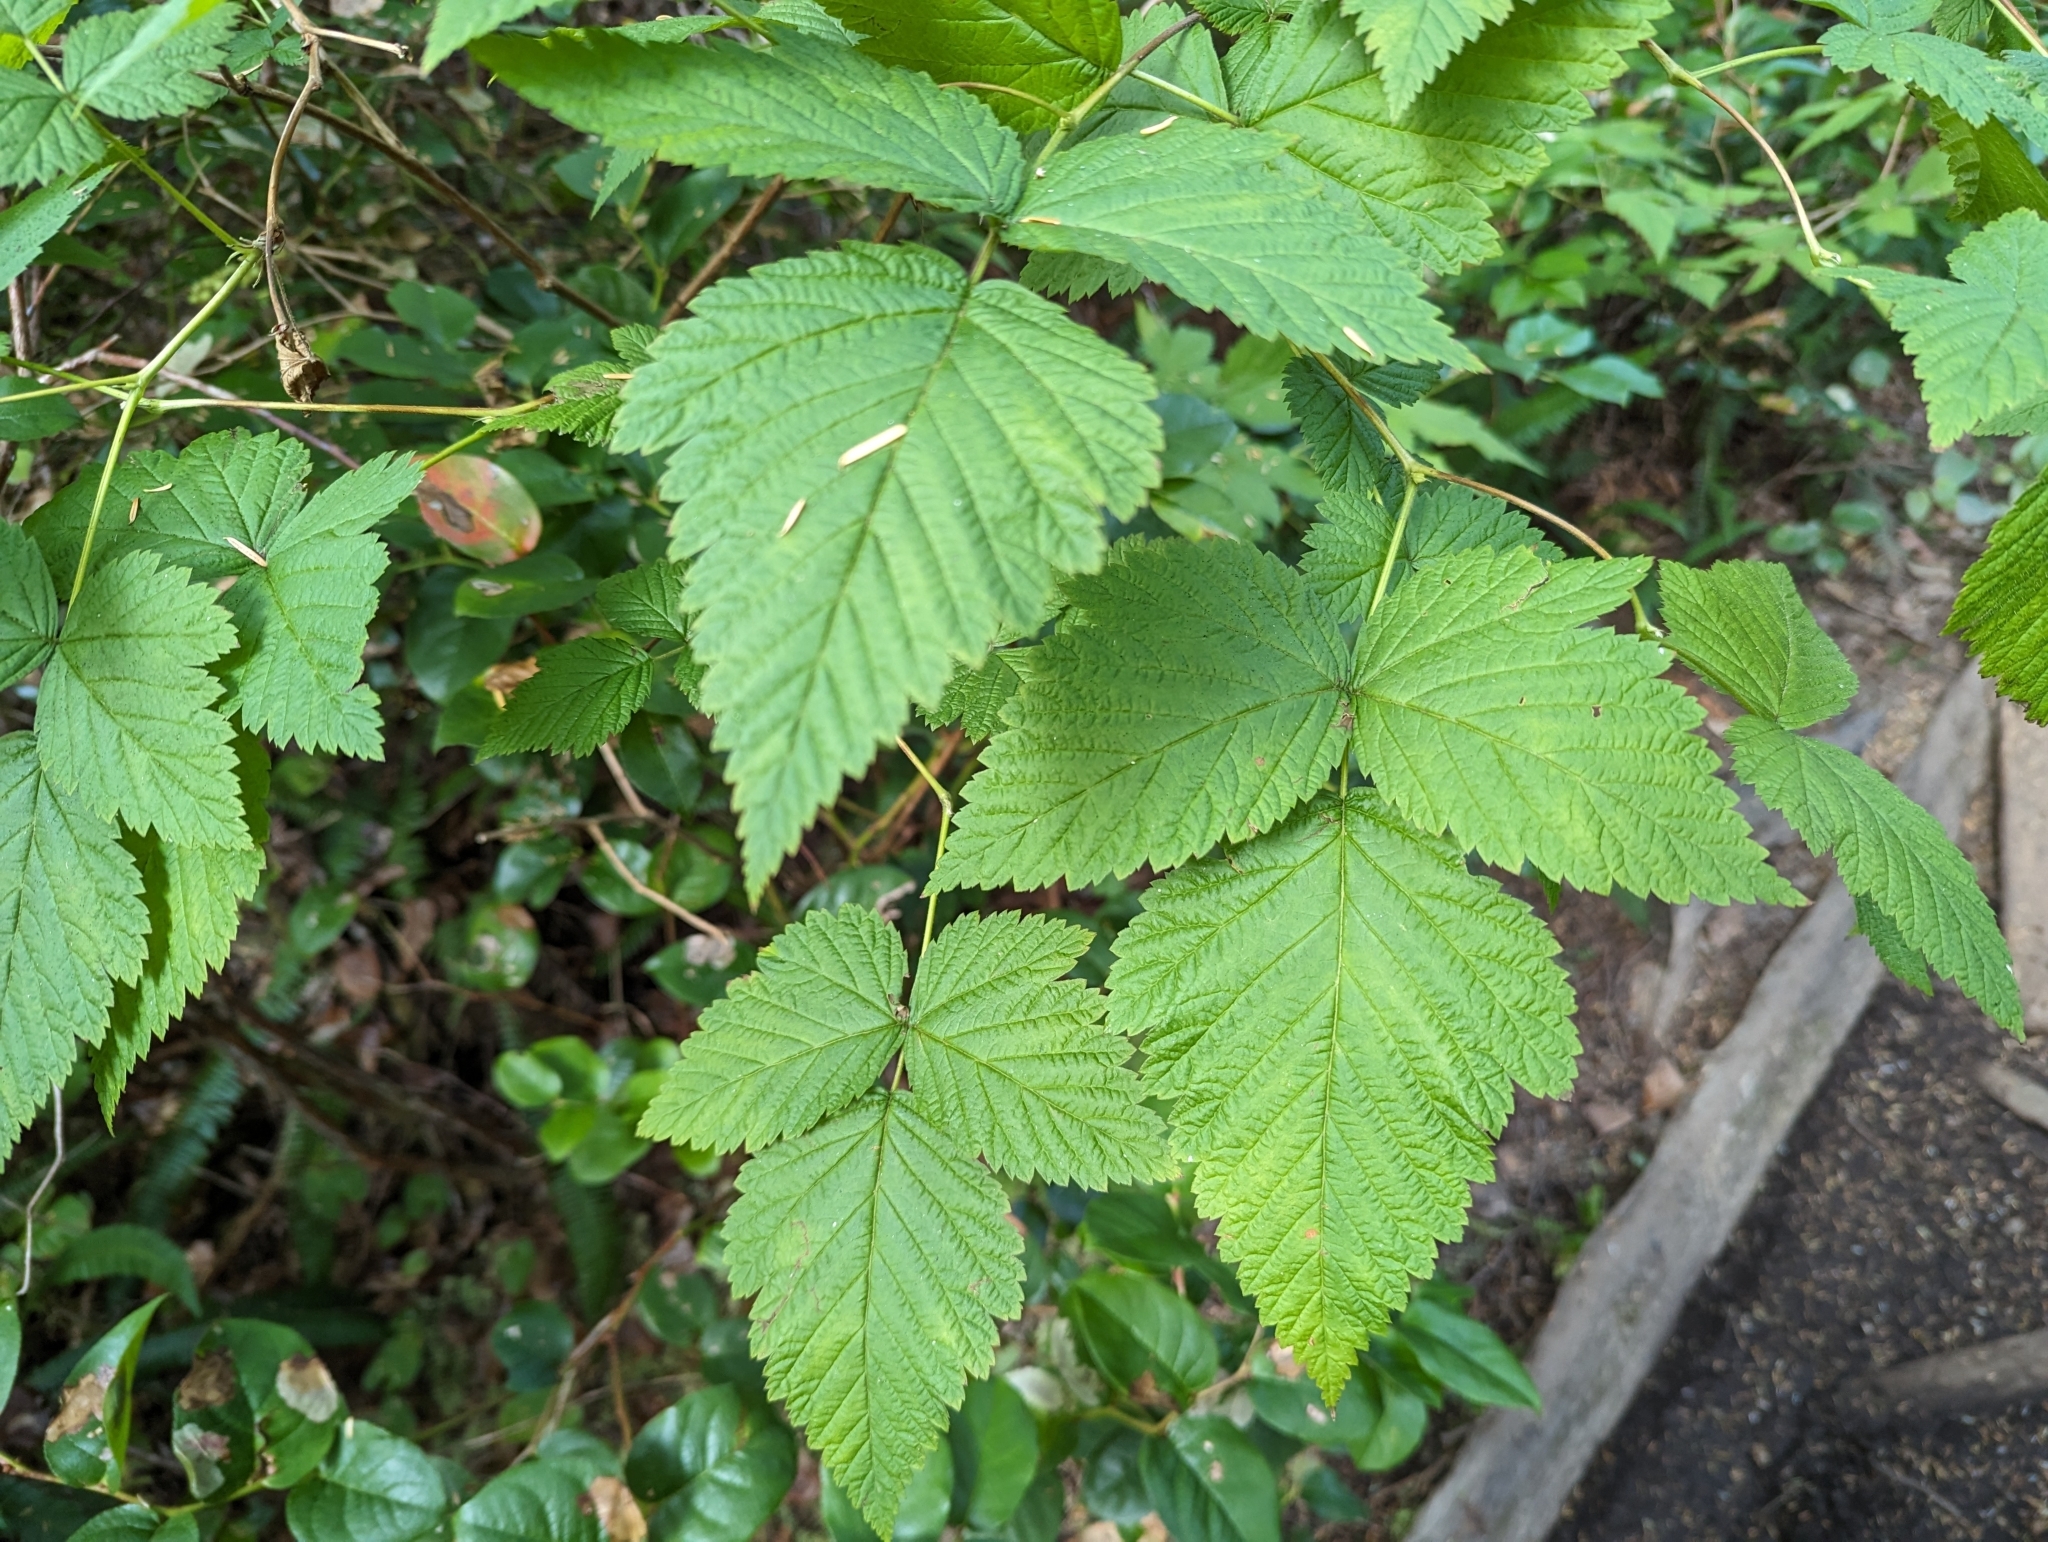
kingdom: Plantae
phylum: Tracheophyta
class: Magnoliopsida
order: Rosales
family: Rosaceae
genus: Rubus
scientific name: Rubus spectabilis
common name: Salmonberry
